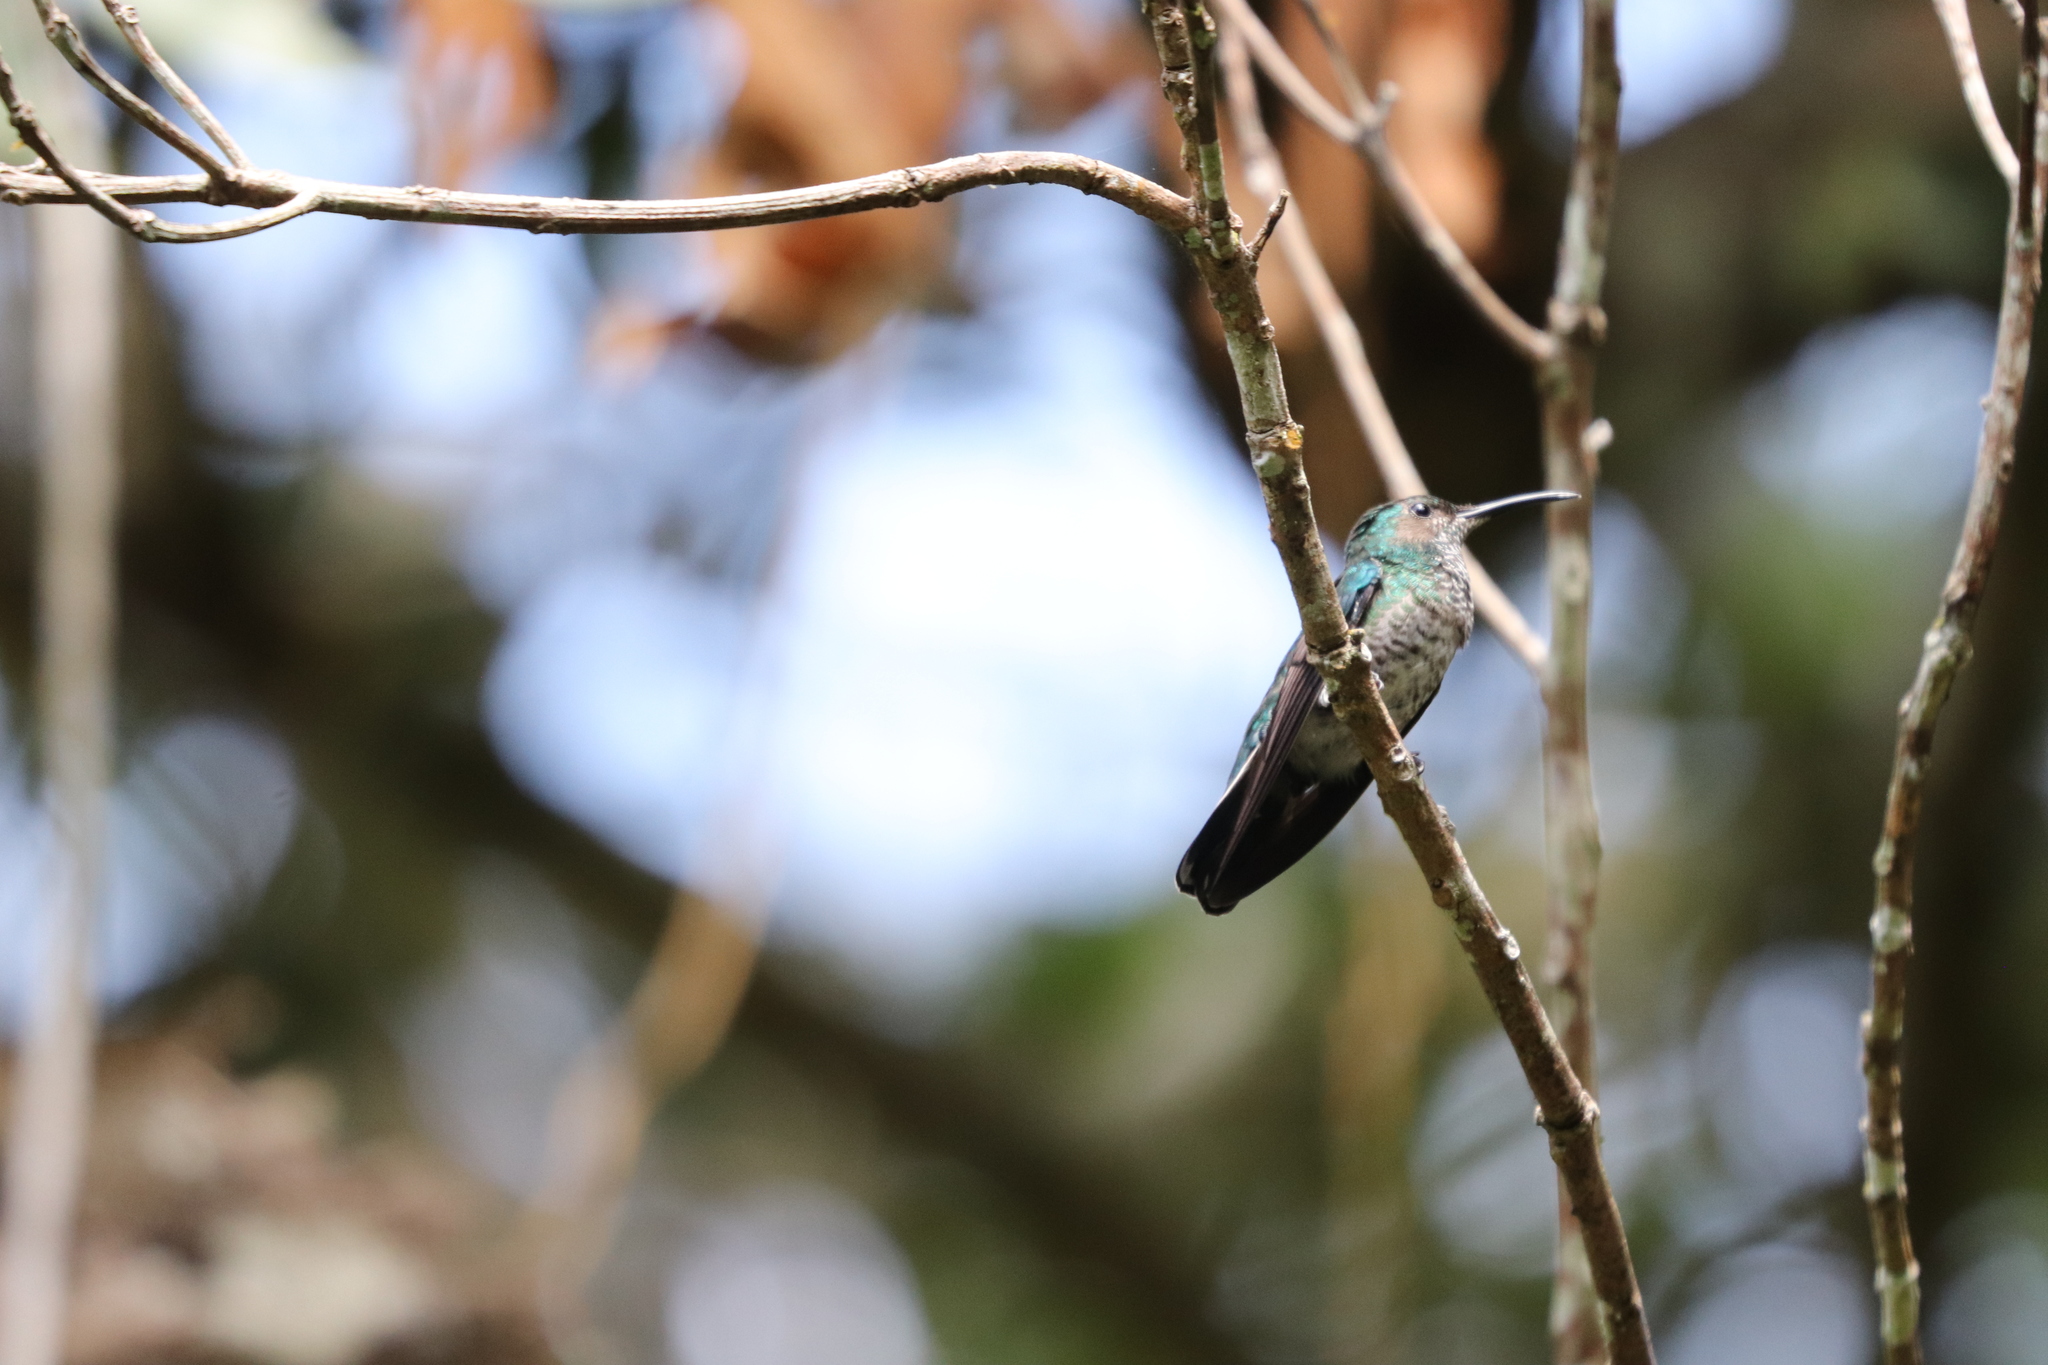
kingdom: Animalia
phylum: Chordata
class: Aves
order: Apodiformes
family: Trochilidae
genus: Florisuga
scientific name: Florisuga mellivora
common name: White-necked jacobin
